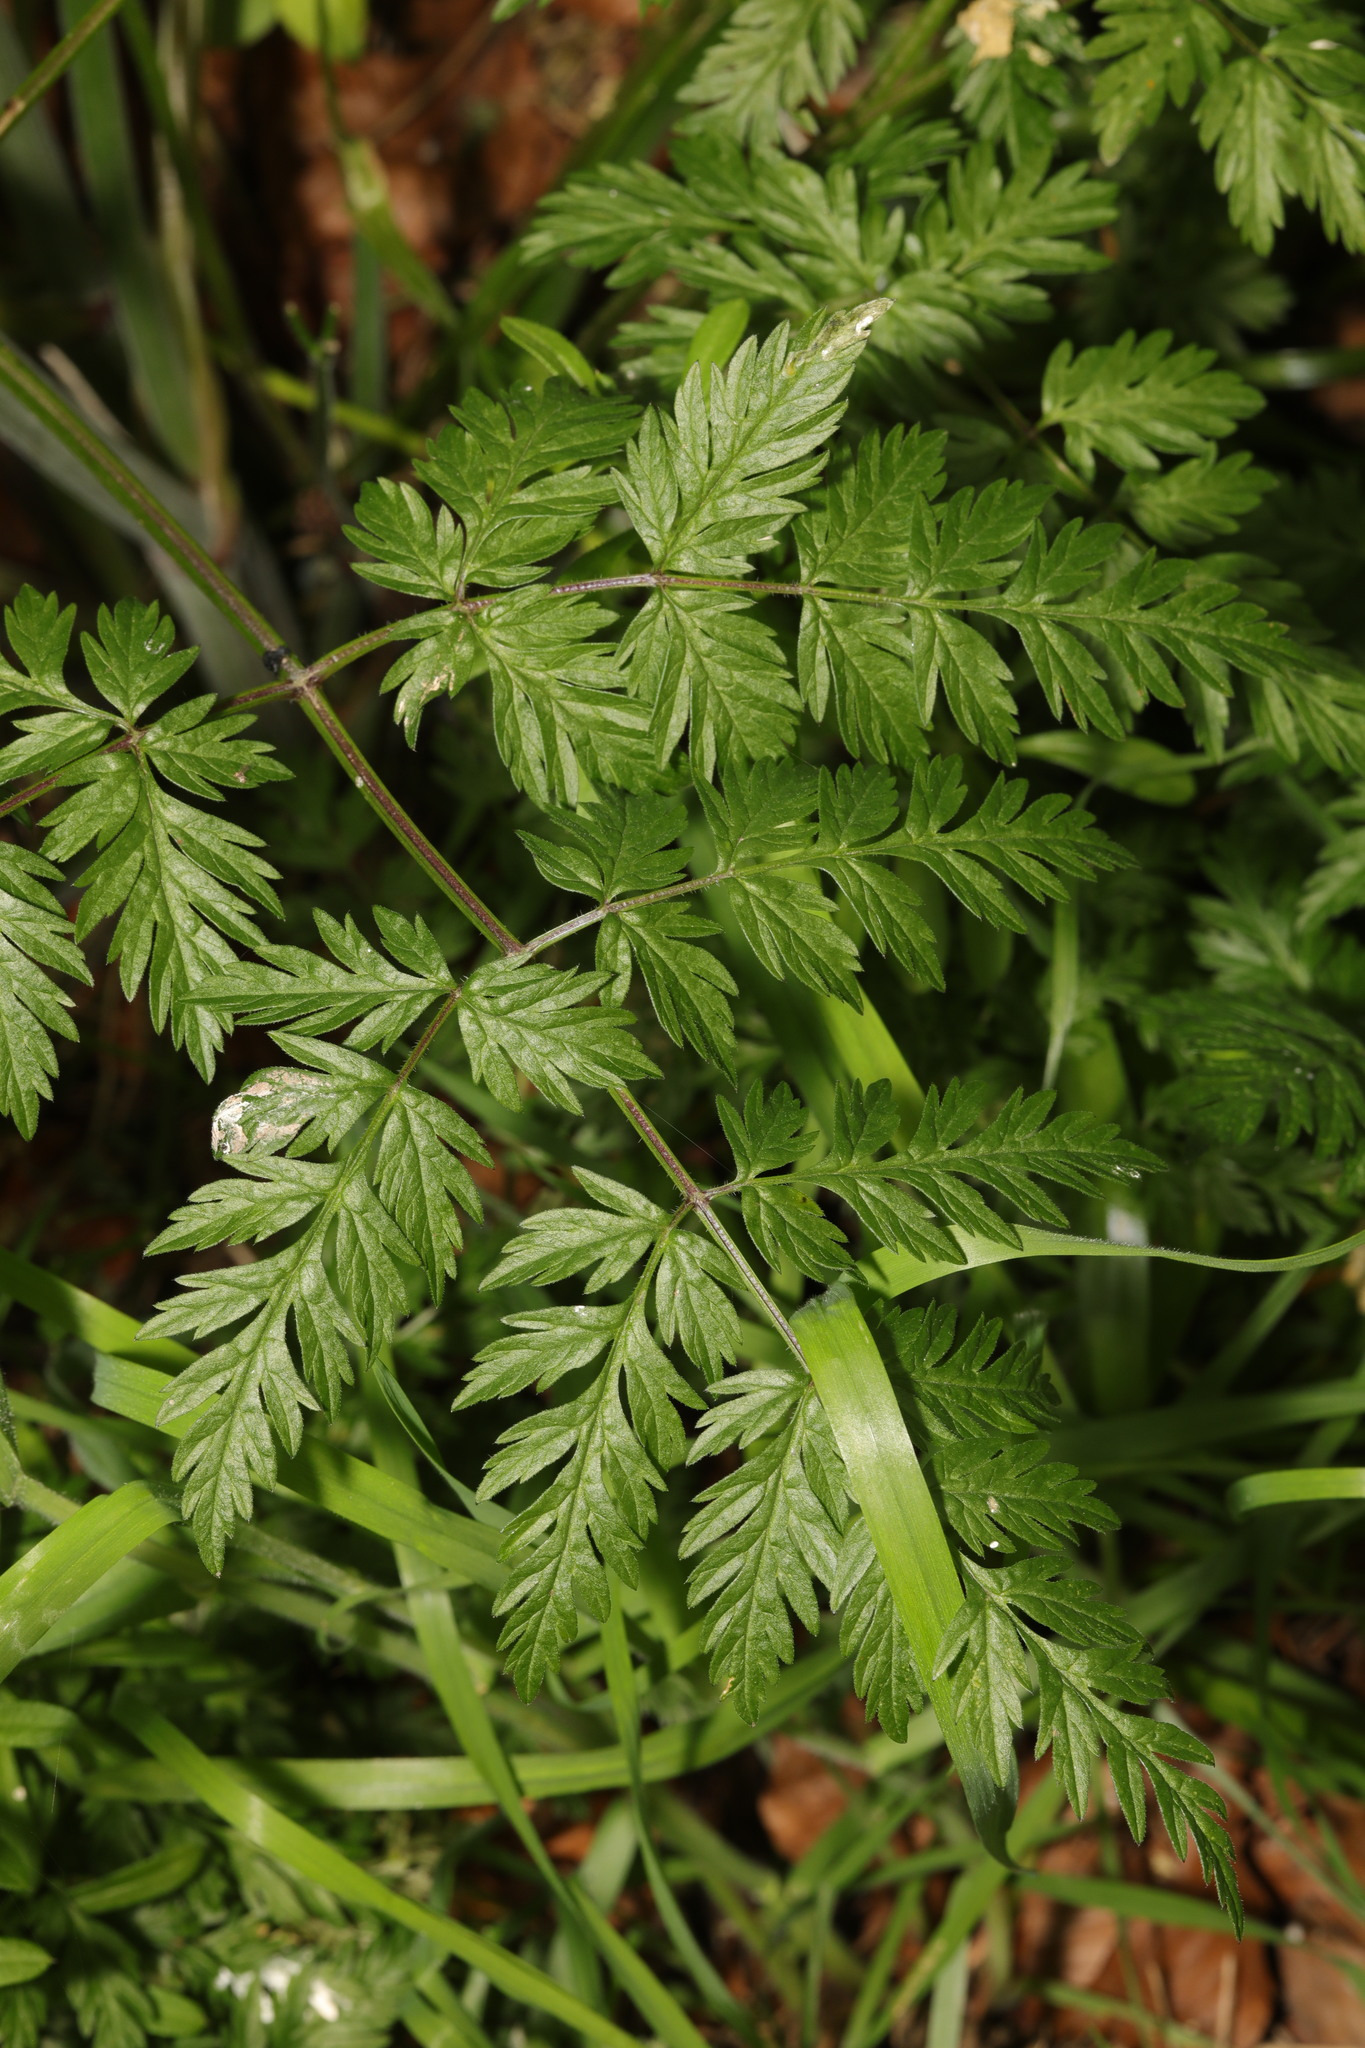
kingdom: Plantae
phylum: Tracheophyta
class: Magnoliopsida
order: Apiales
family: Apiaceae
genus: Anthriscus
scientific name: Anthriscus sylvestris
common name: Cow parsley
